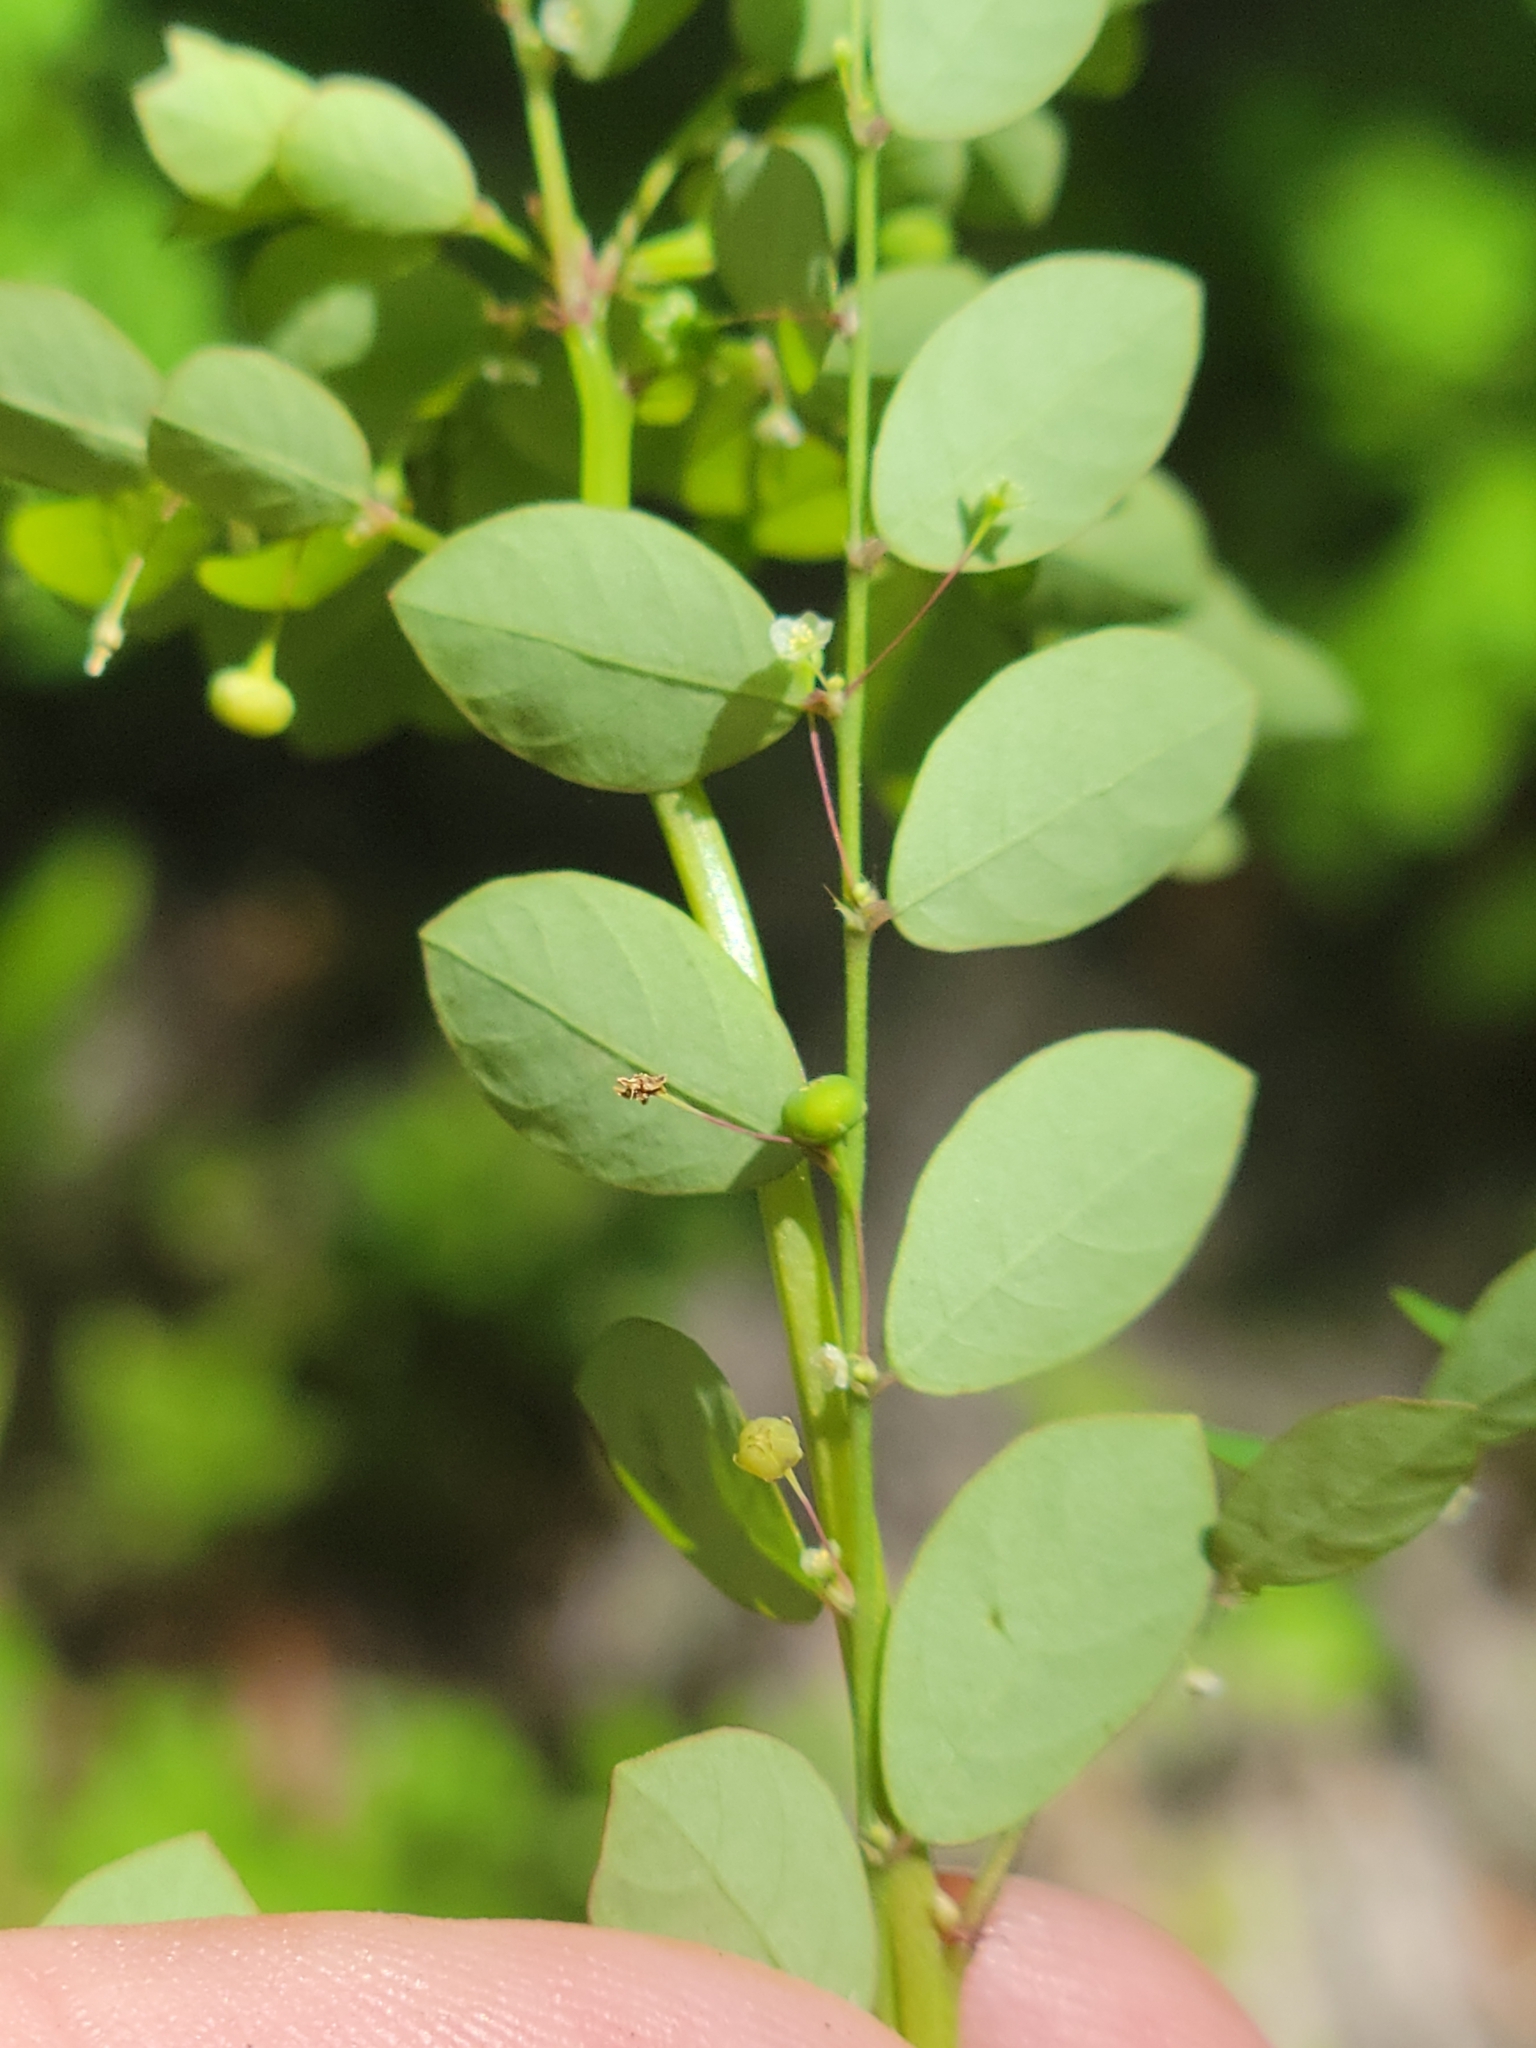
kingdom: Plantae
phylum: Tracheophyta
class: Magnoliopsida
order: Malpighiales
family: Phyllanthaceae
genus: Phyllanthus
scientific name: Phyllanthus tenellus
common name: Mascarene island leaf-flower
